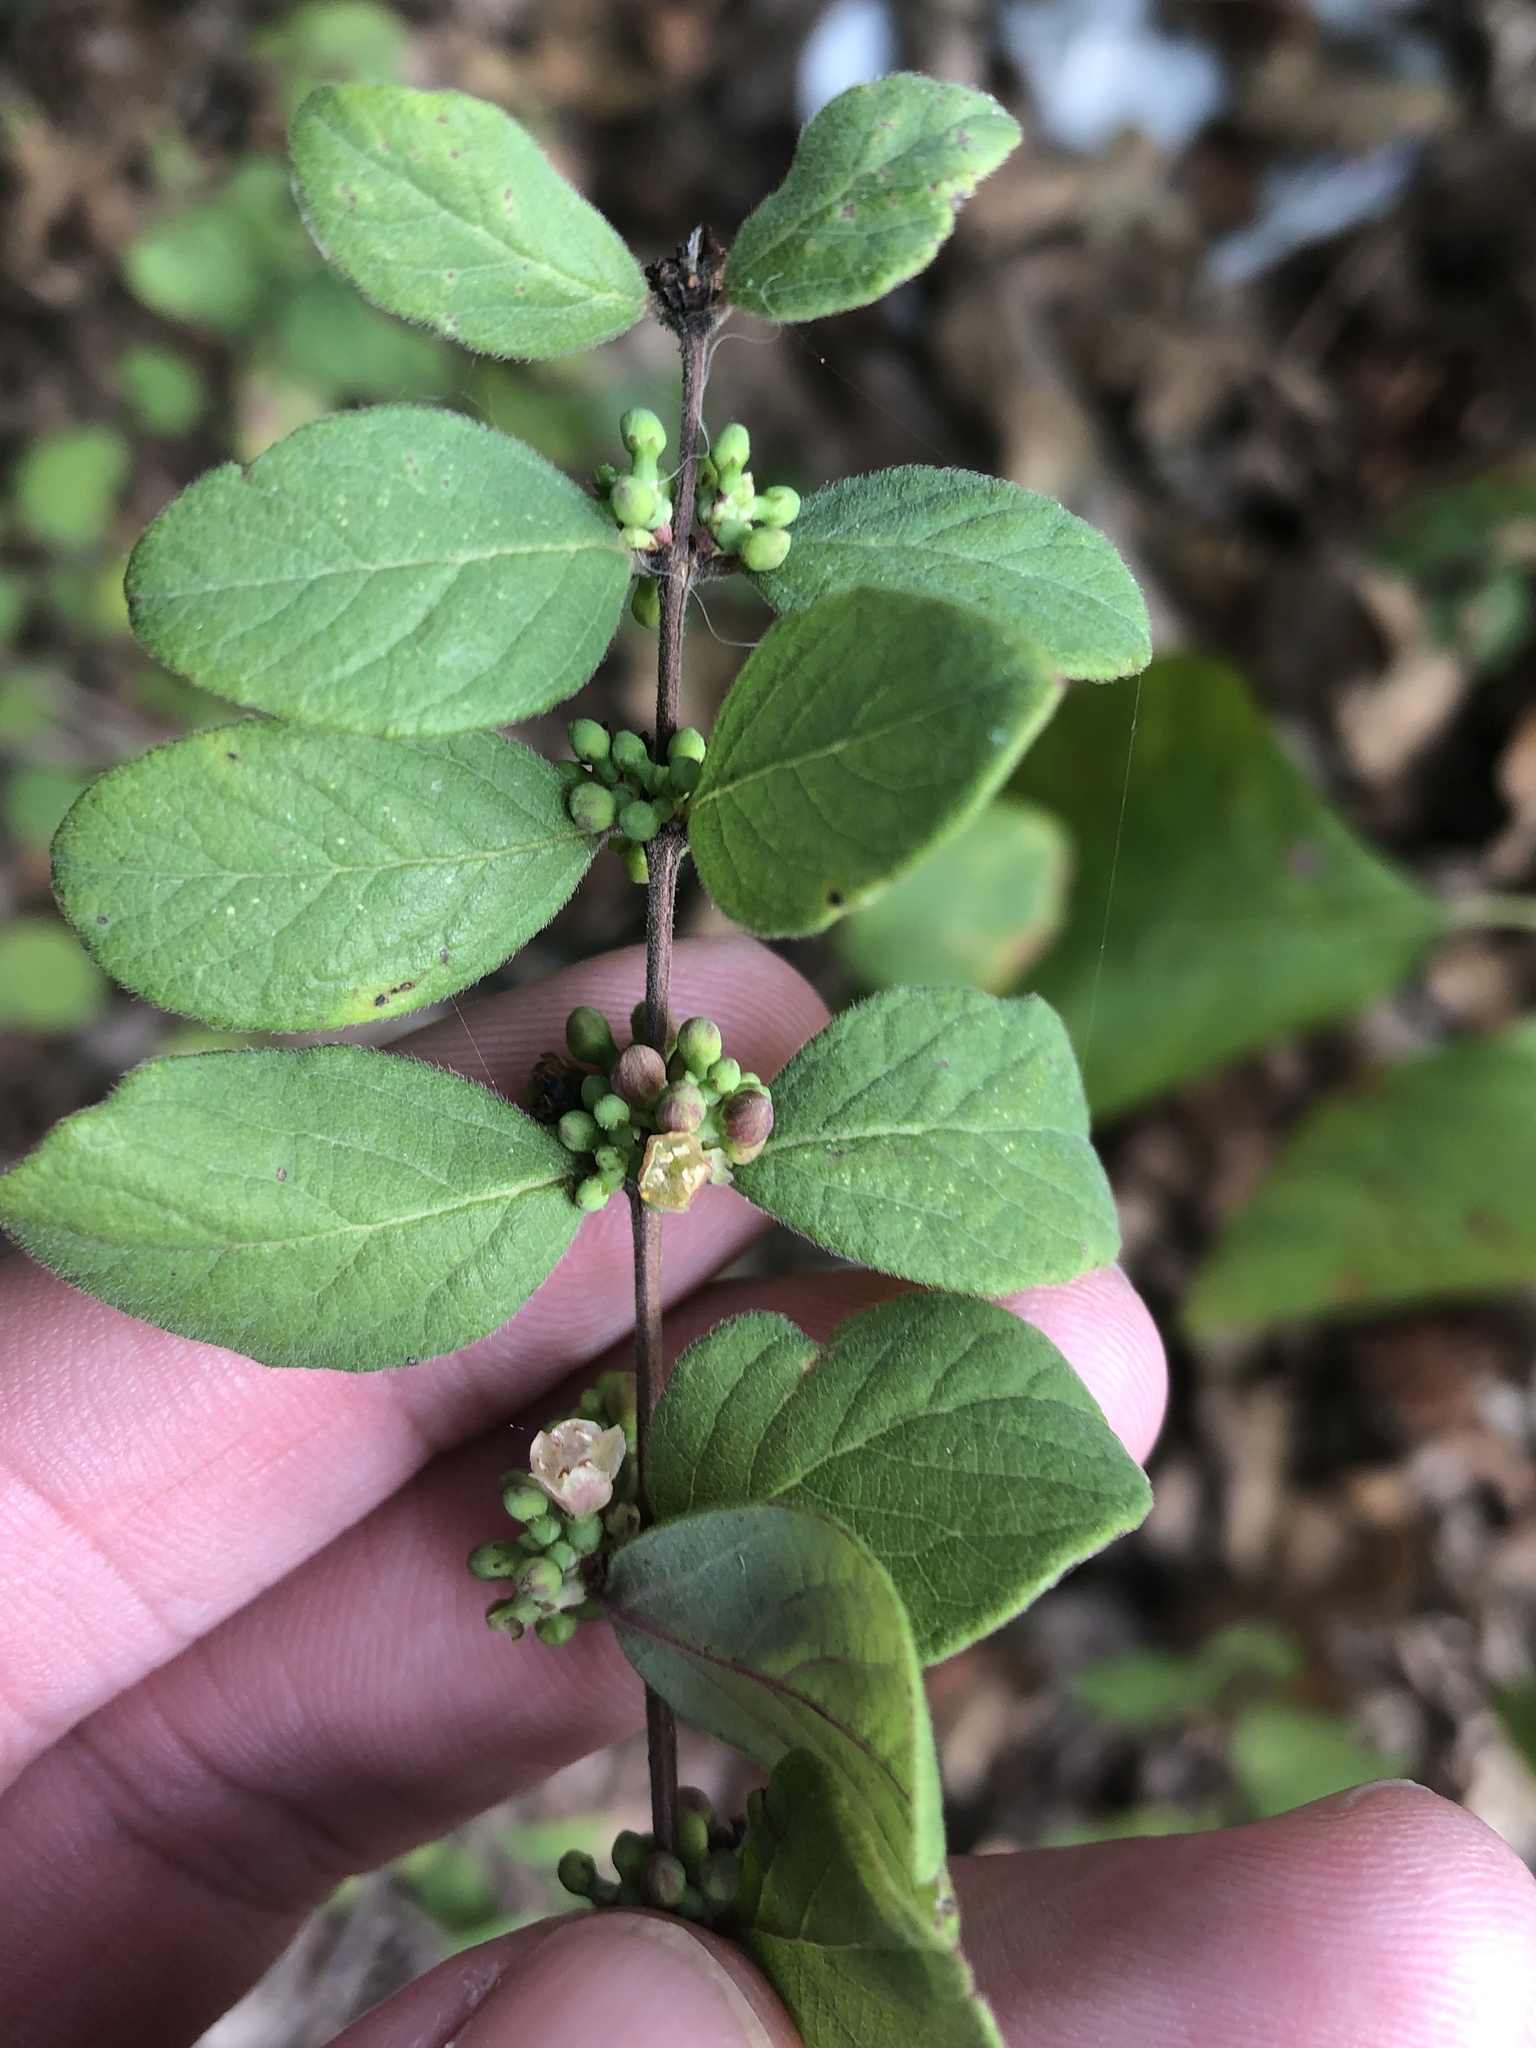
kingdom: Plantae
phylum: Tracheophyta
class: Magnoliopsida
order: Dipsacales
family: Caprifoliaceae
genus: Symphoricarpos
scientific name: Symphoricarpos orbiculatus
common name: Coralberry
